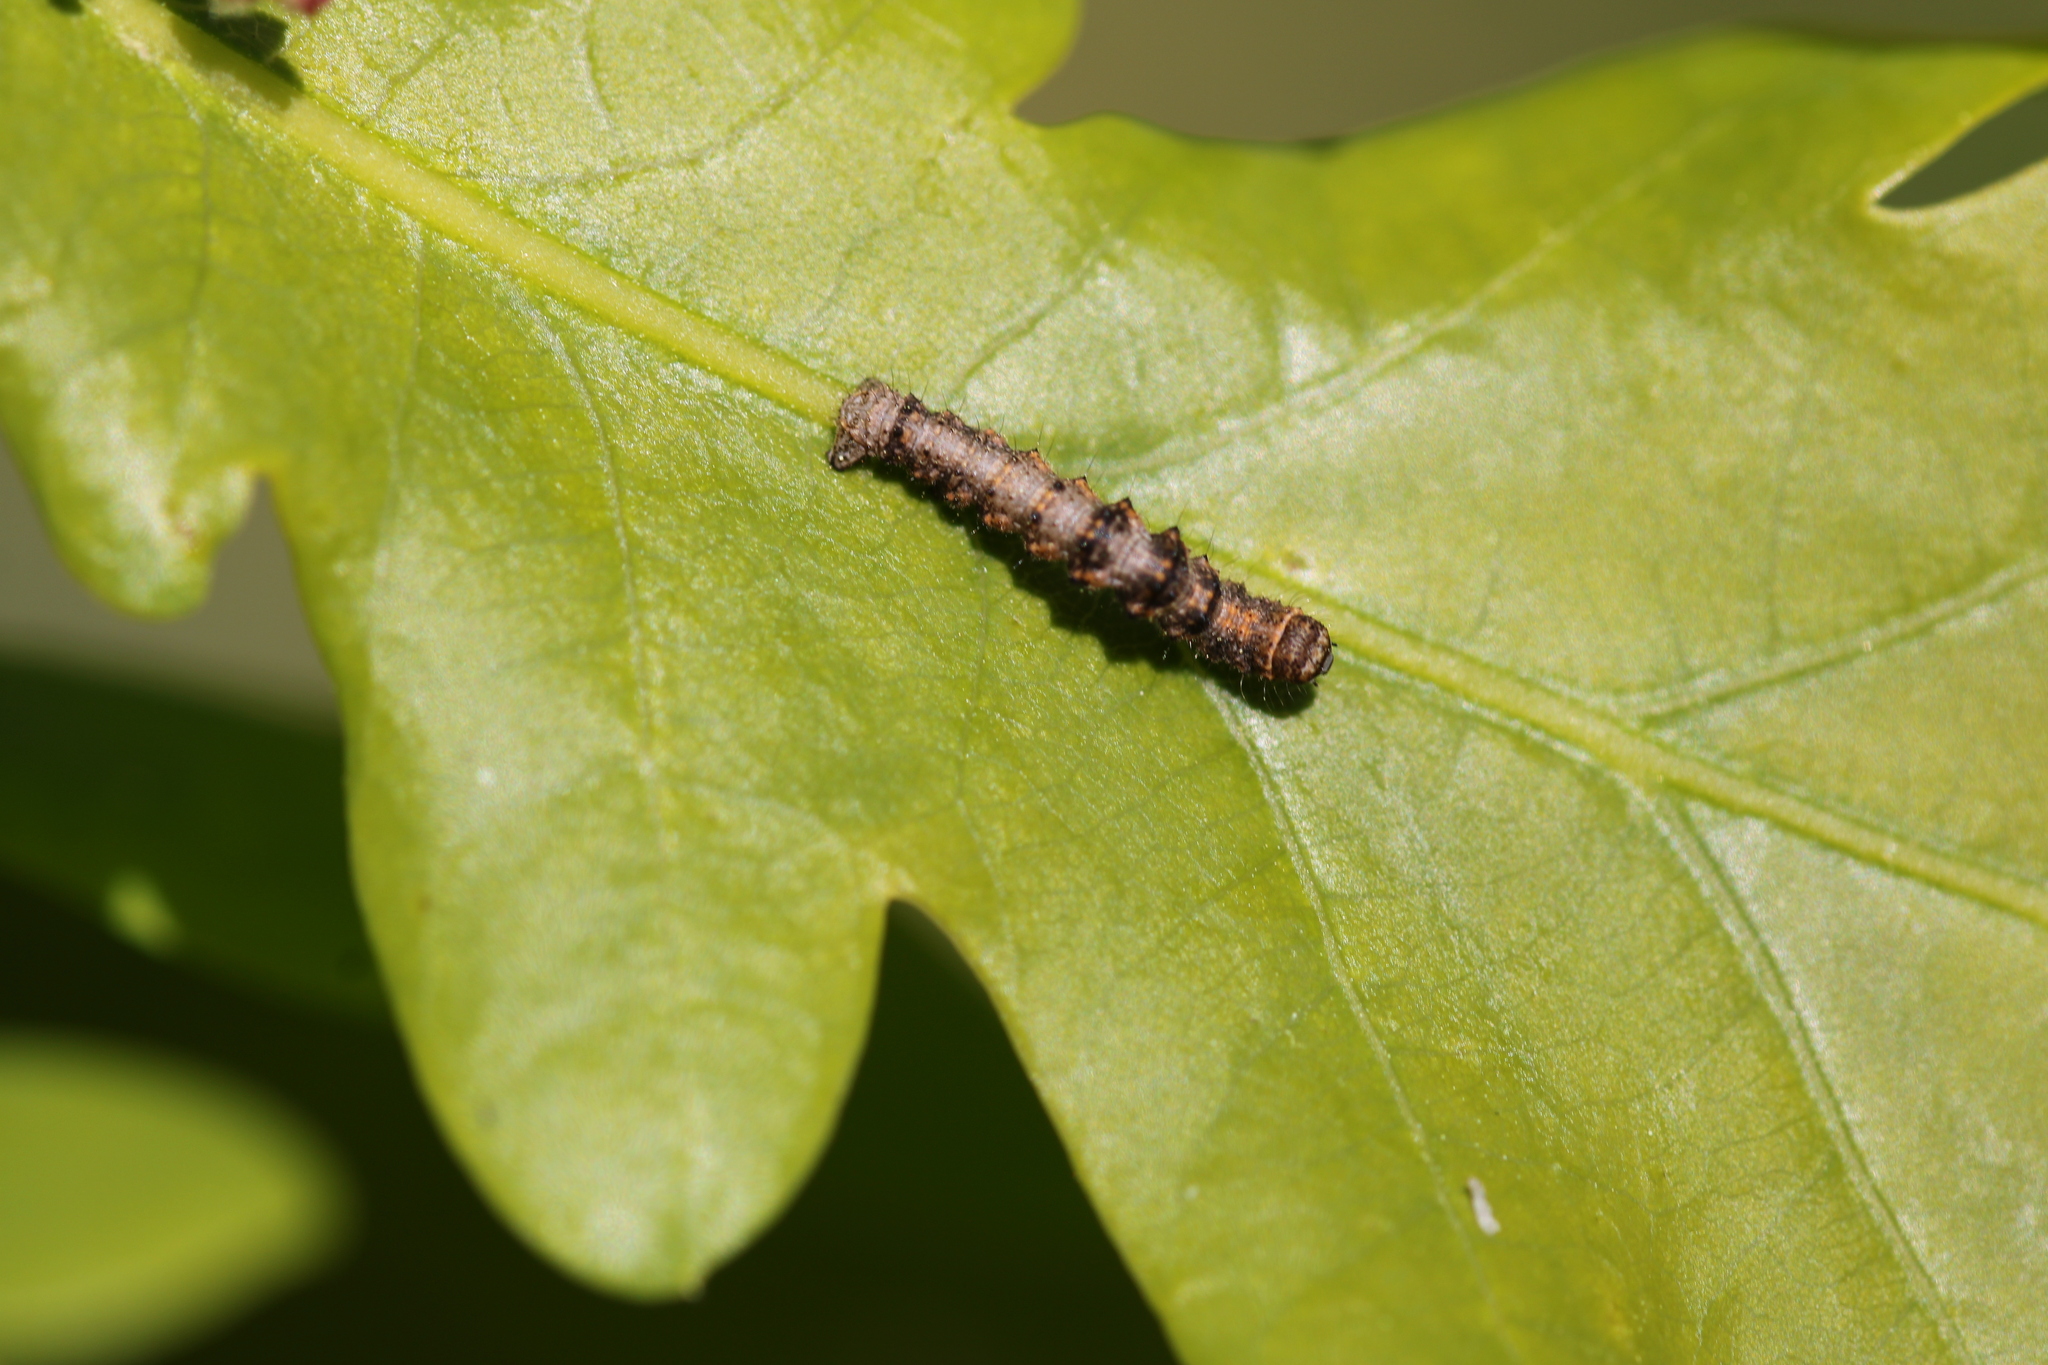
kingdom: Animalia
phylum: Arthropoda
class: Insecta
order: Lepidoptera
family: Geometridae
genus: Phigalia
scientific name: Phigalia pilosaria
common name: Pale brindled beauty
